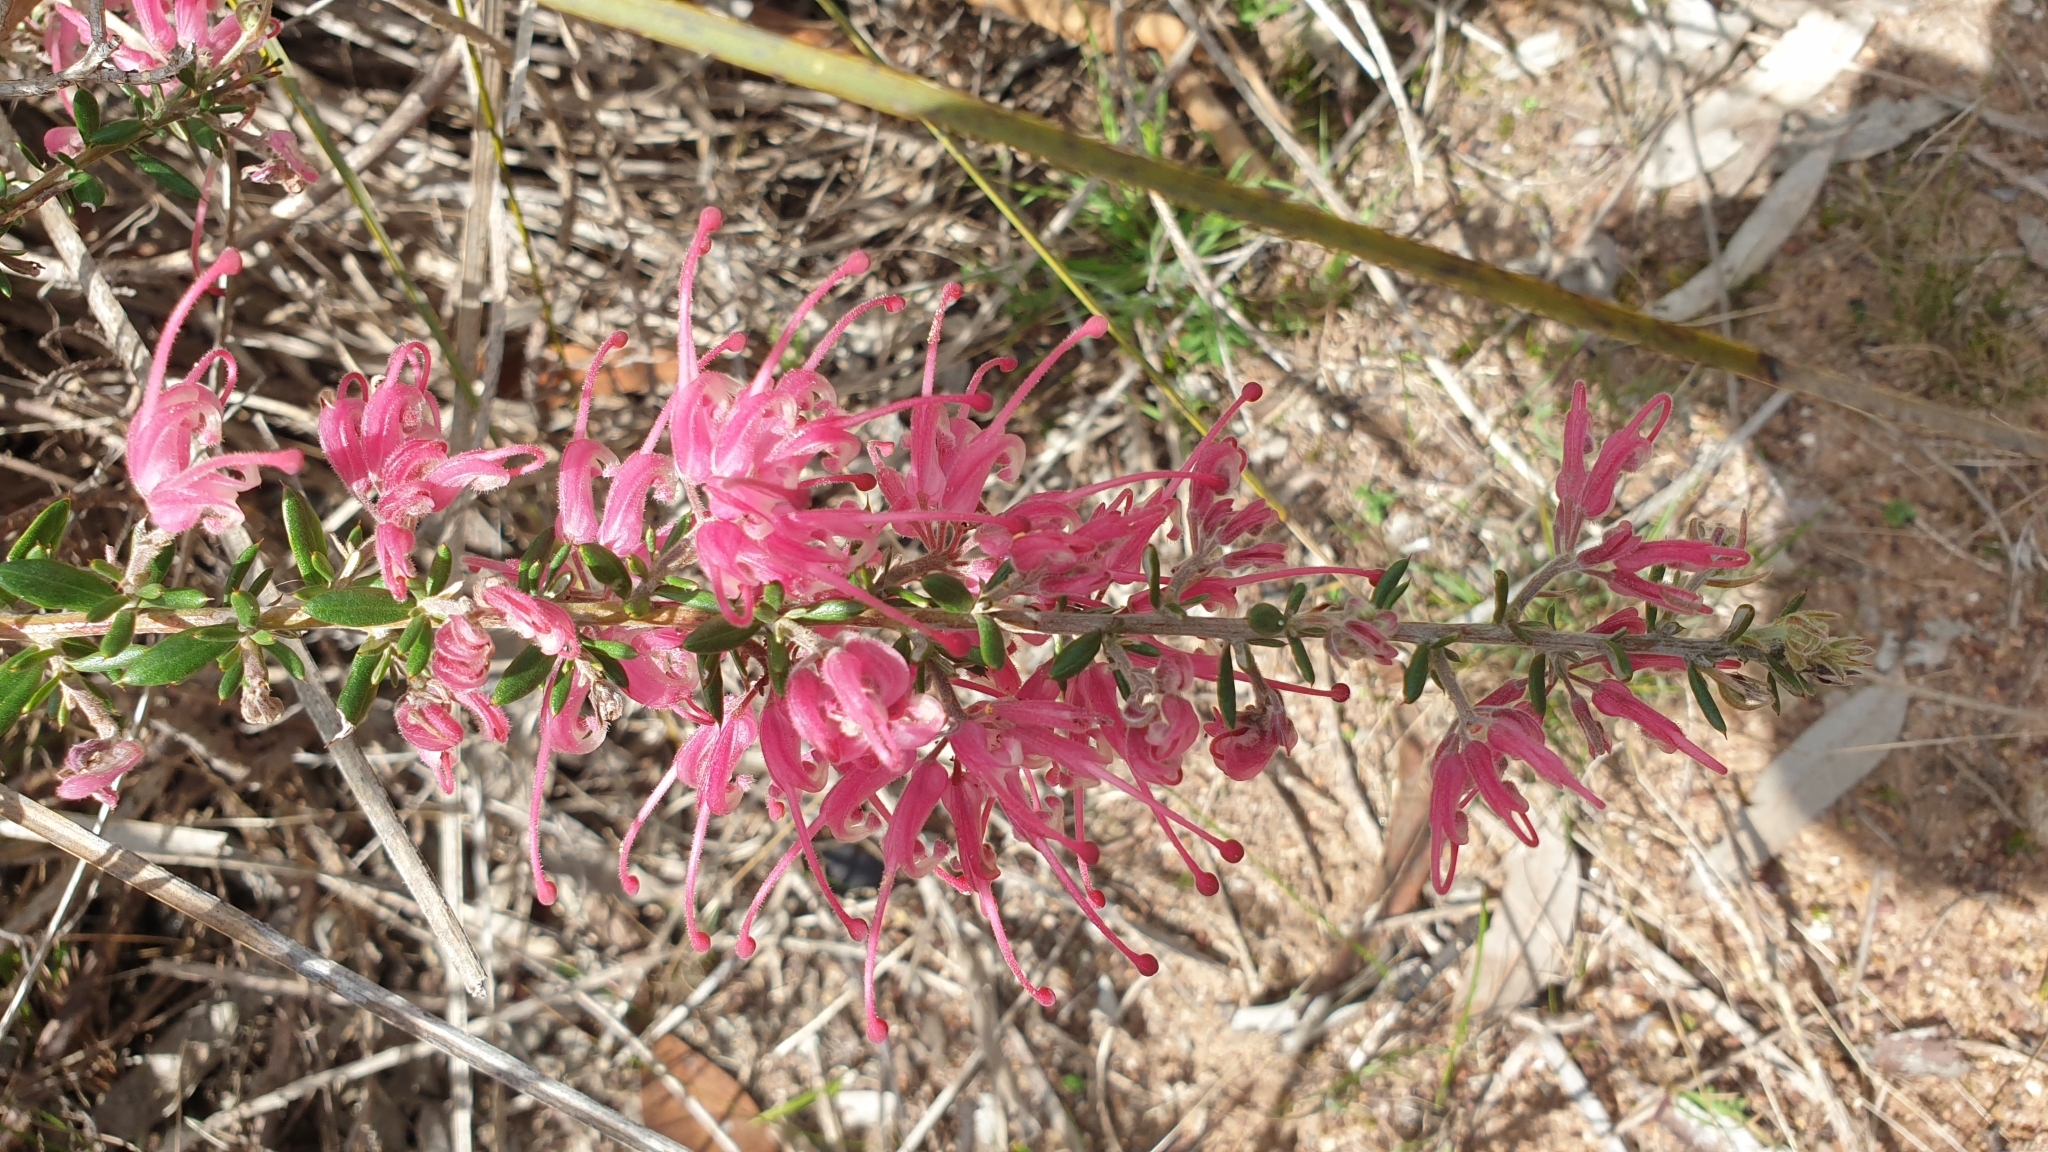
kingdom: Plantae
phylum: Tracheophyta
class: Magnoliopsida
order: Proteales
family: Proteaceae
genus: Grevillea
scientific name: Grevillea lavandulacea
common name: Lavender grevillea
